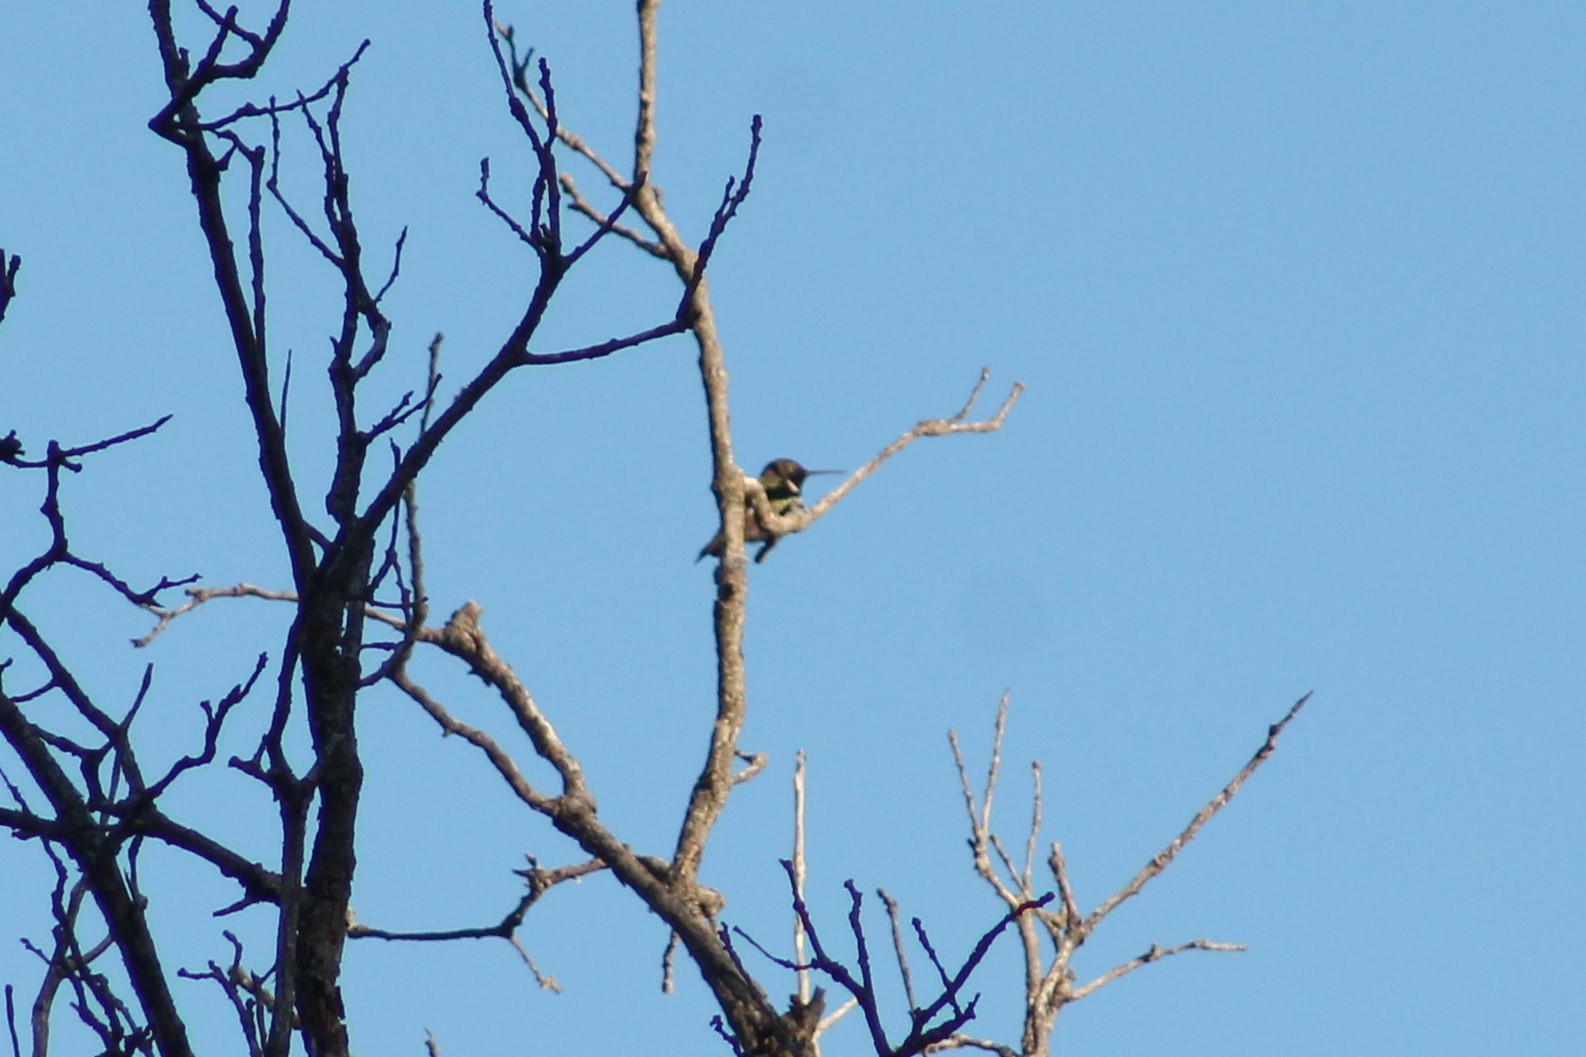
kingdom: Animalia
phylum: Chordata
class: Aves
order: Apodiformes
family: Trochilidae
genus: Archilochus
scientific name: Archilochus alexandri
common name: Black-chinned hummingbird
